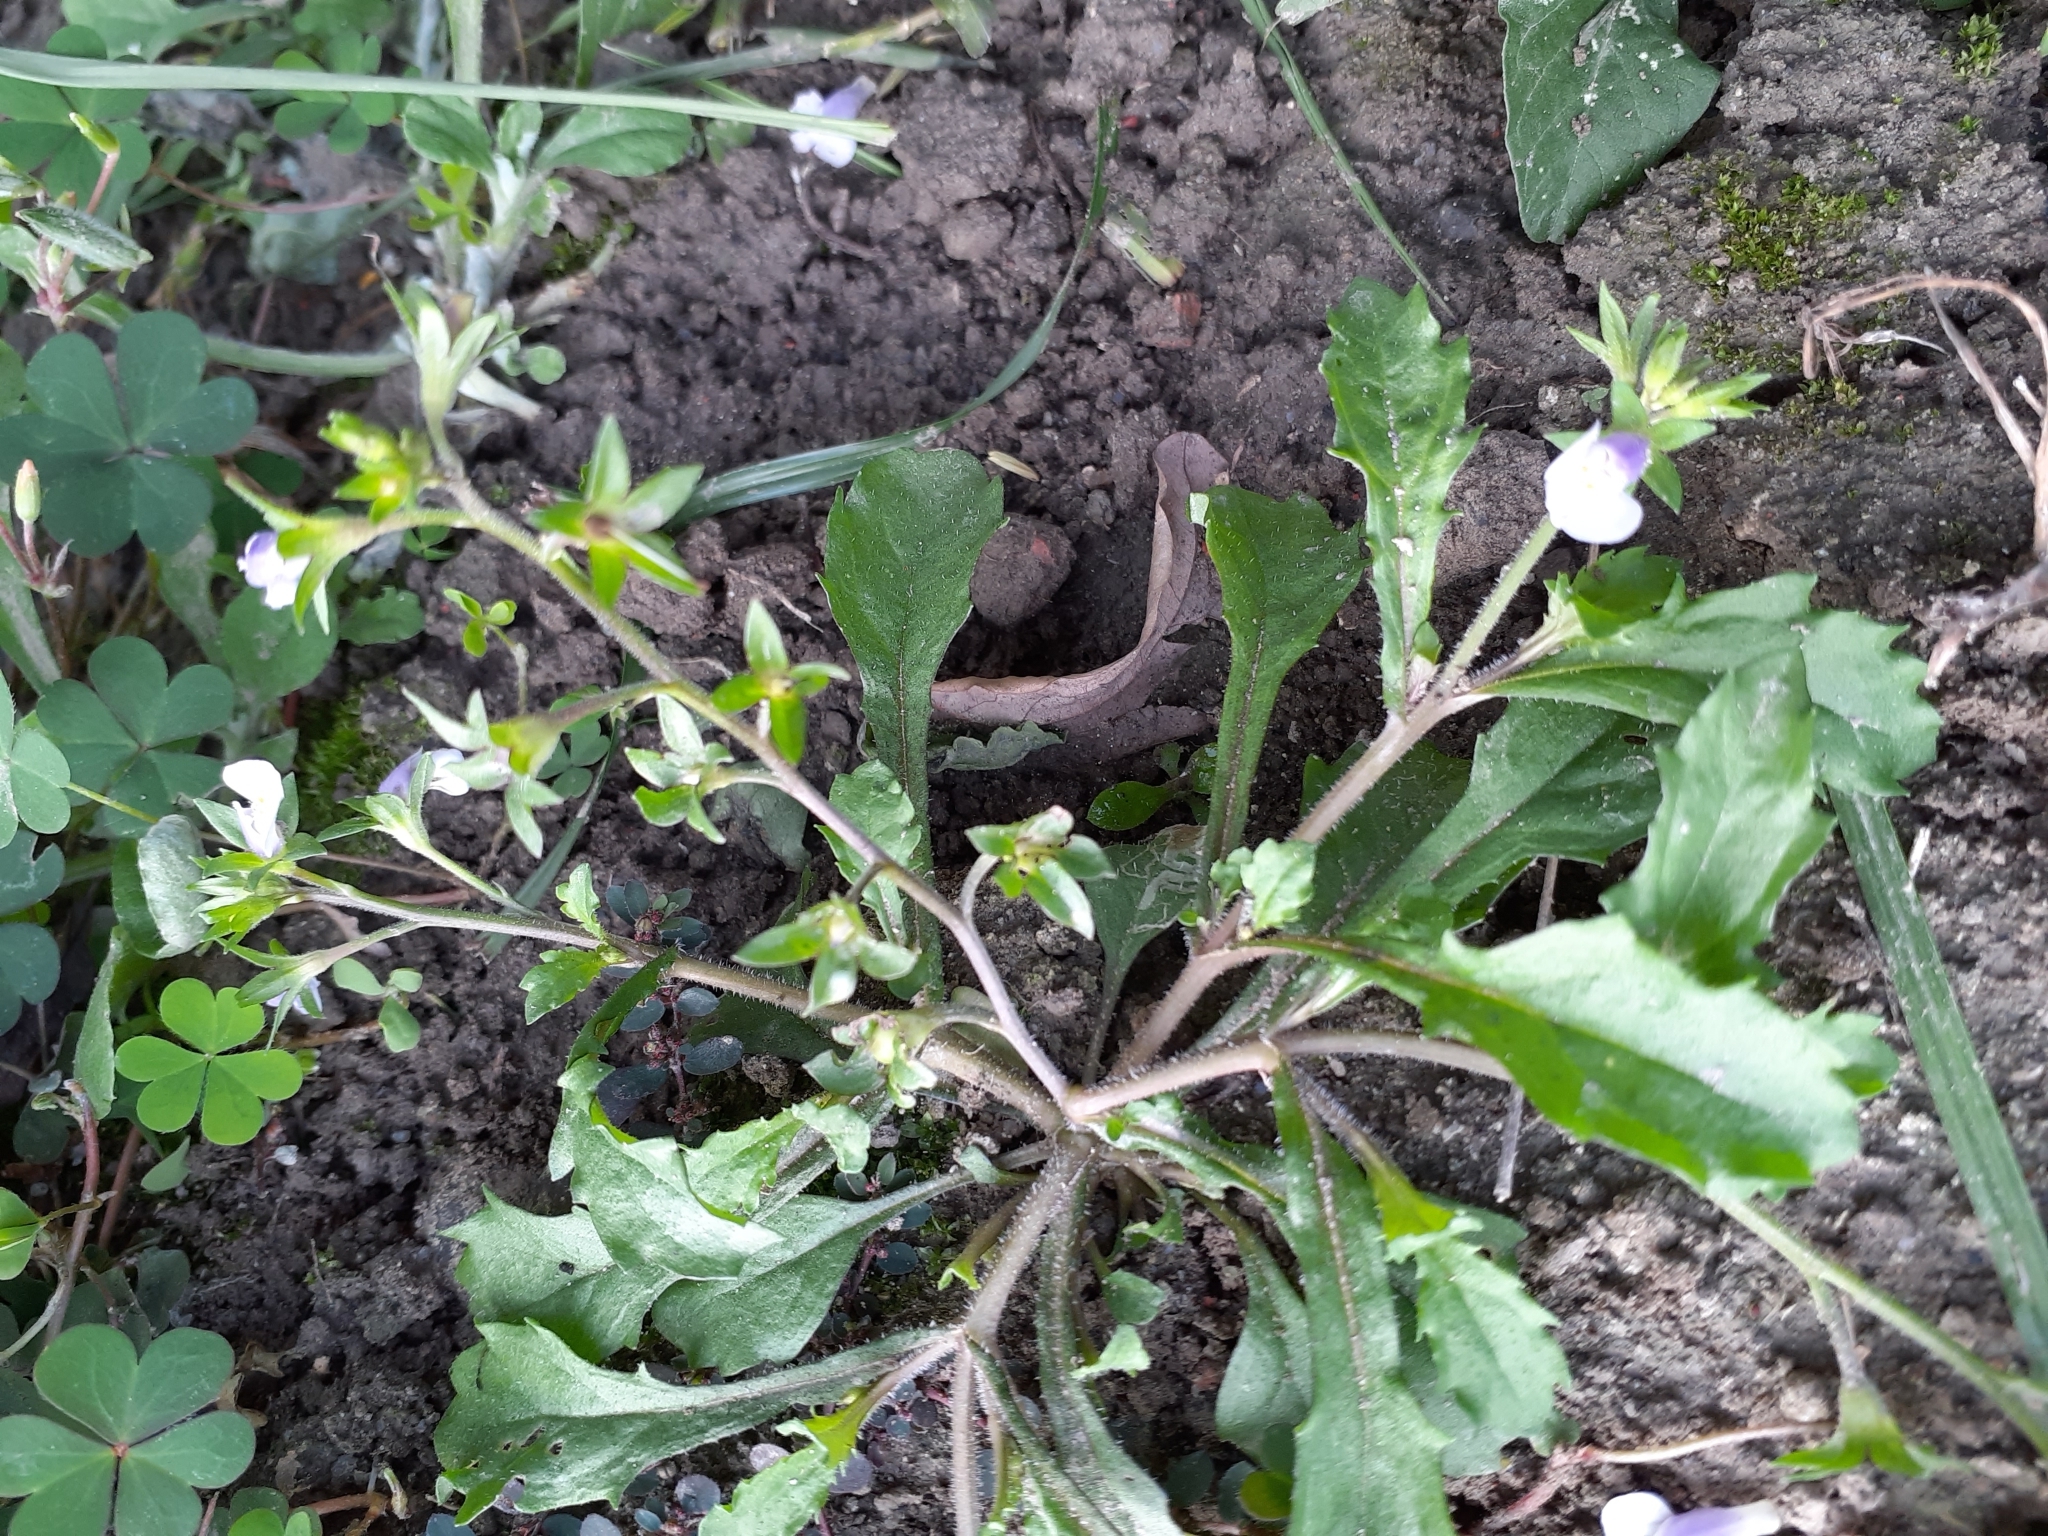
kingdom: Plantae
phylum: Tracheophyta
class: Magnoliopsida
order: Lamiales
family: Mazaceae
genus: Mazus
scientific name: Mazus pumilus
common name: Japanese mazus
